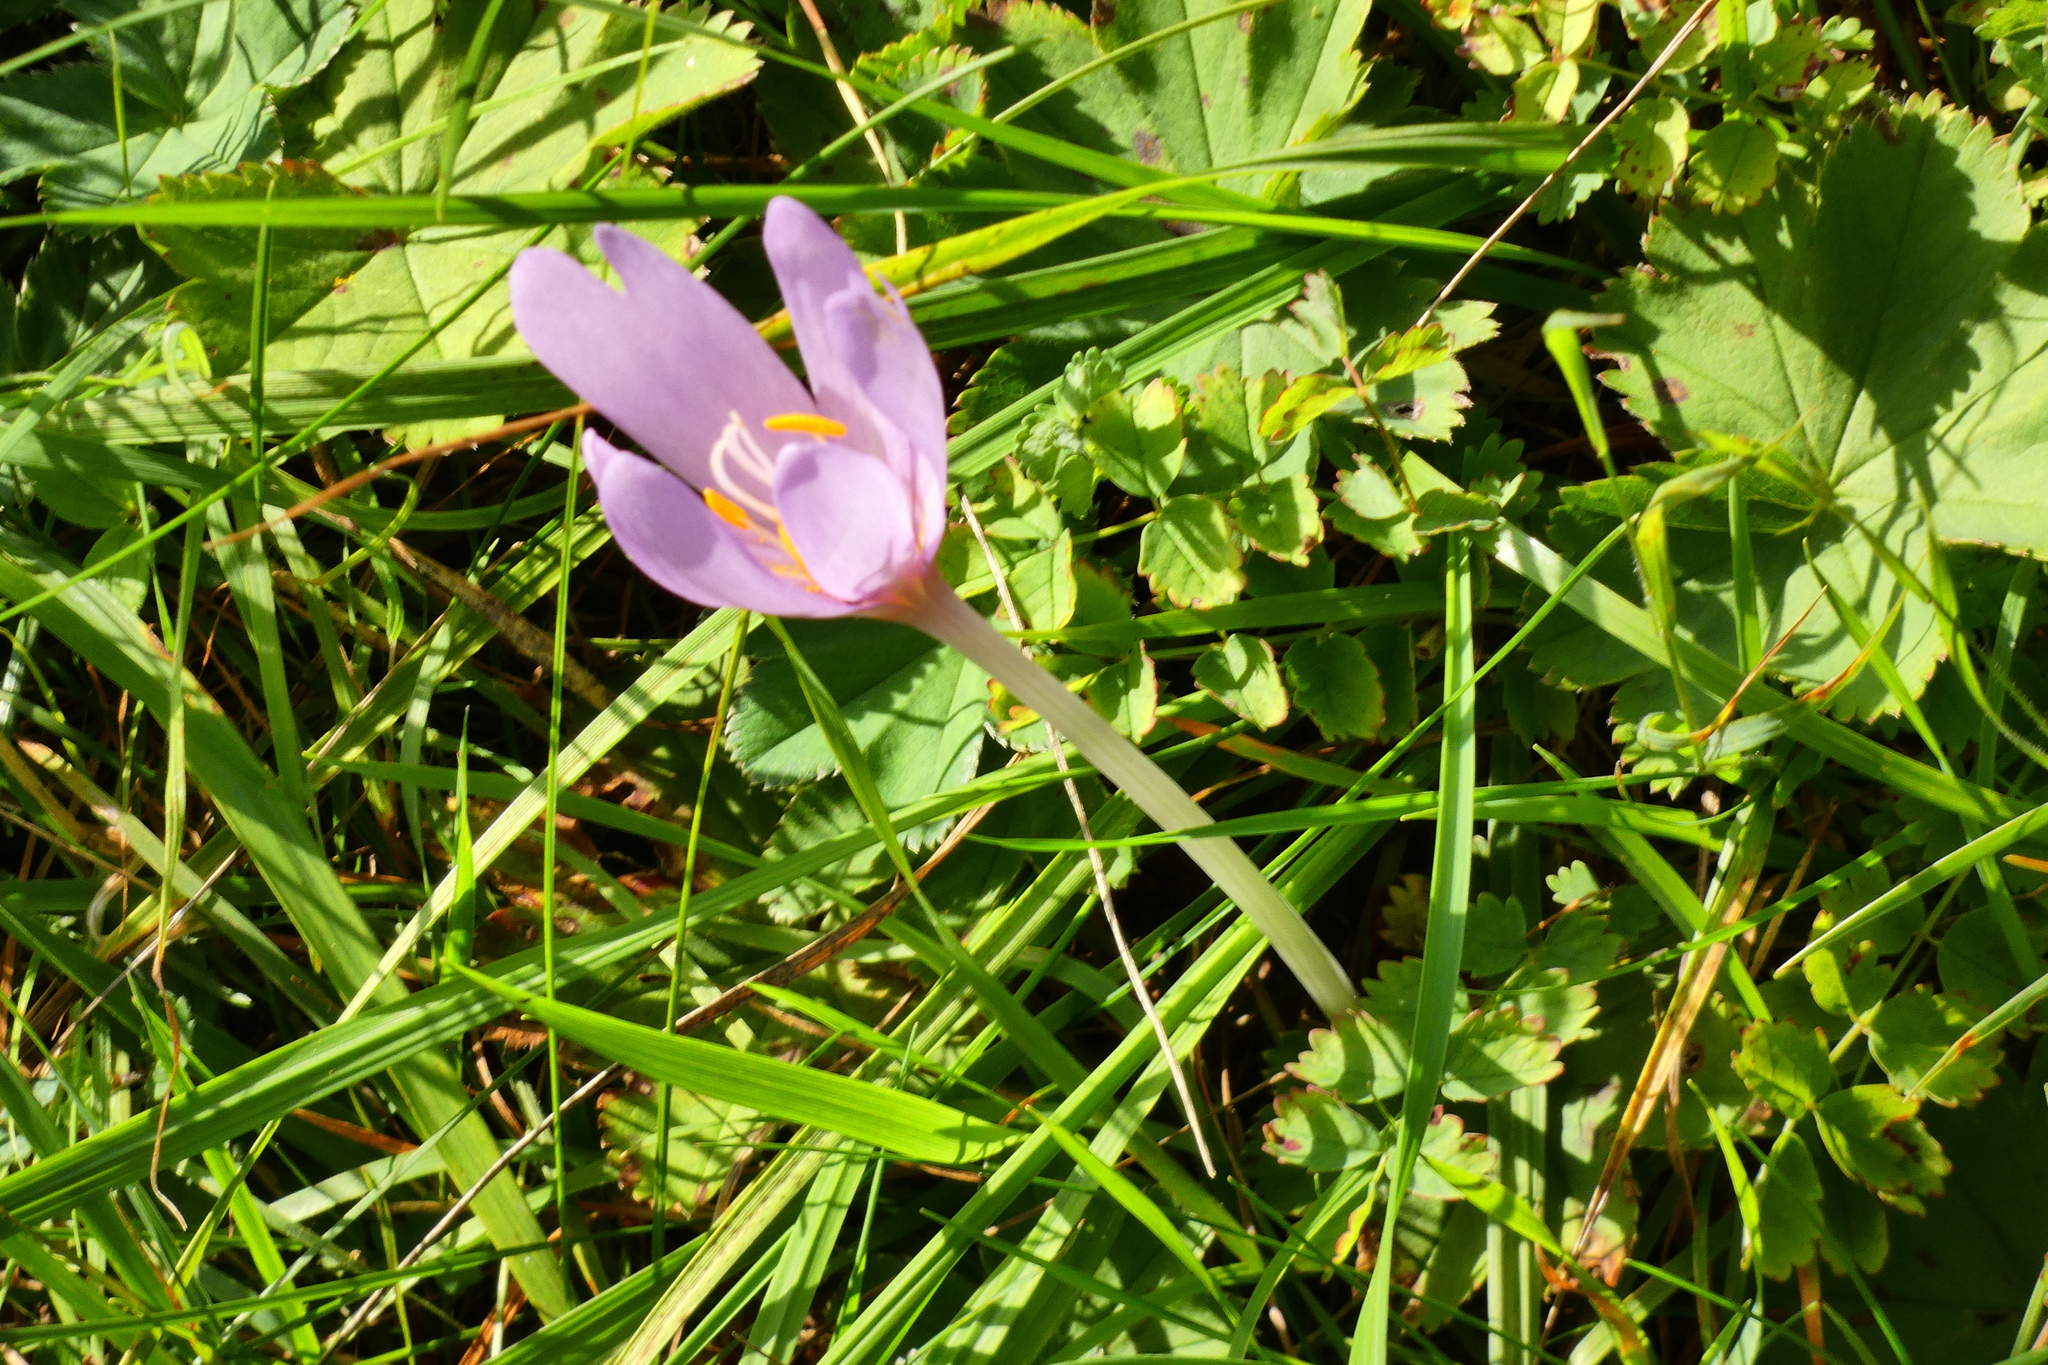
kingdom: Plantae
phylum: Tracheophyta
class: Liliopsida
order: Liliales
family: Colchicaceae
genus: Colchicum
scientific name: Colchicum autumnale
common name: Autumn crocus
